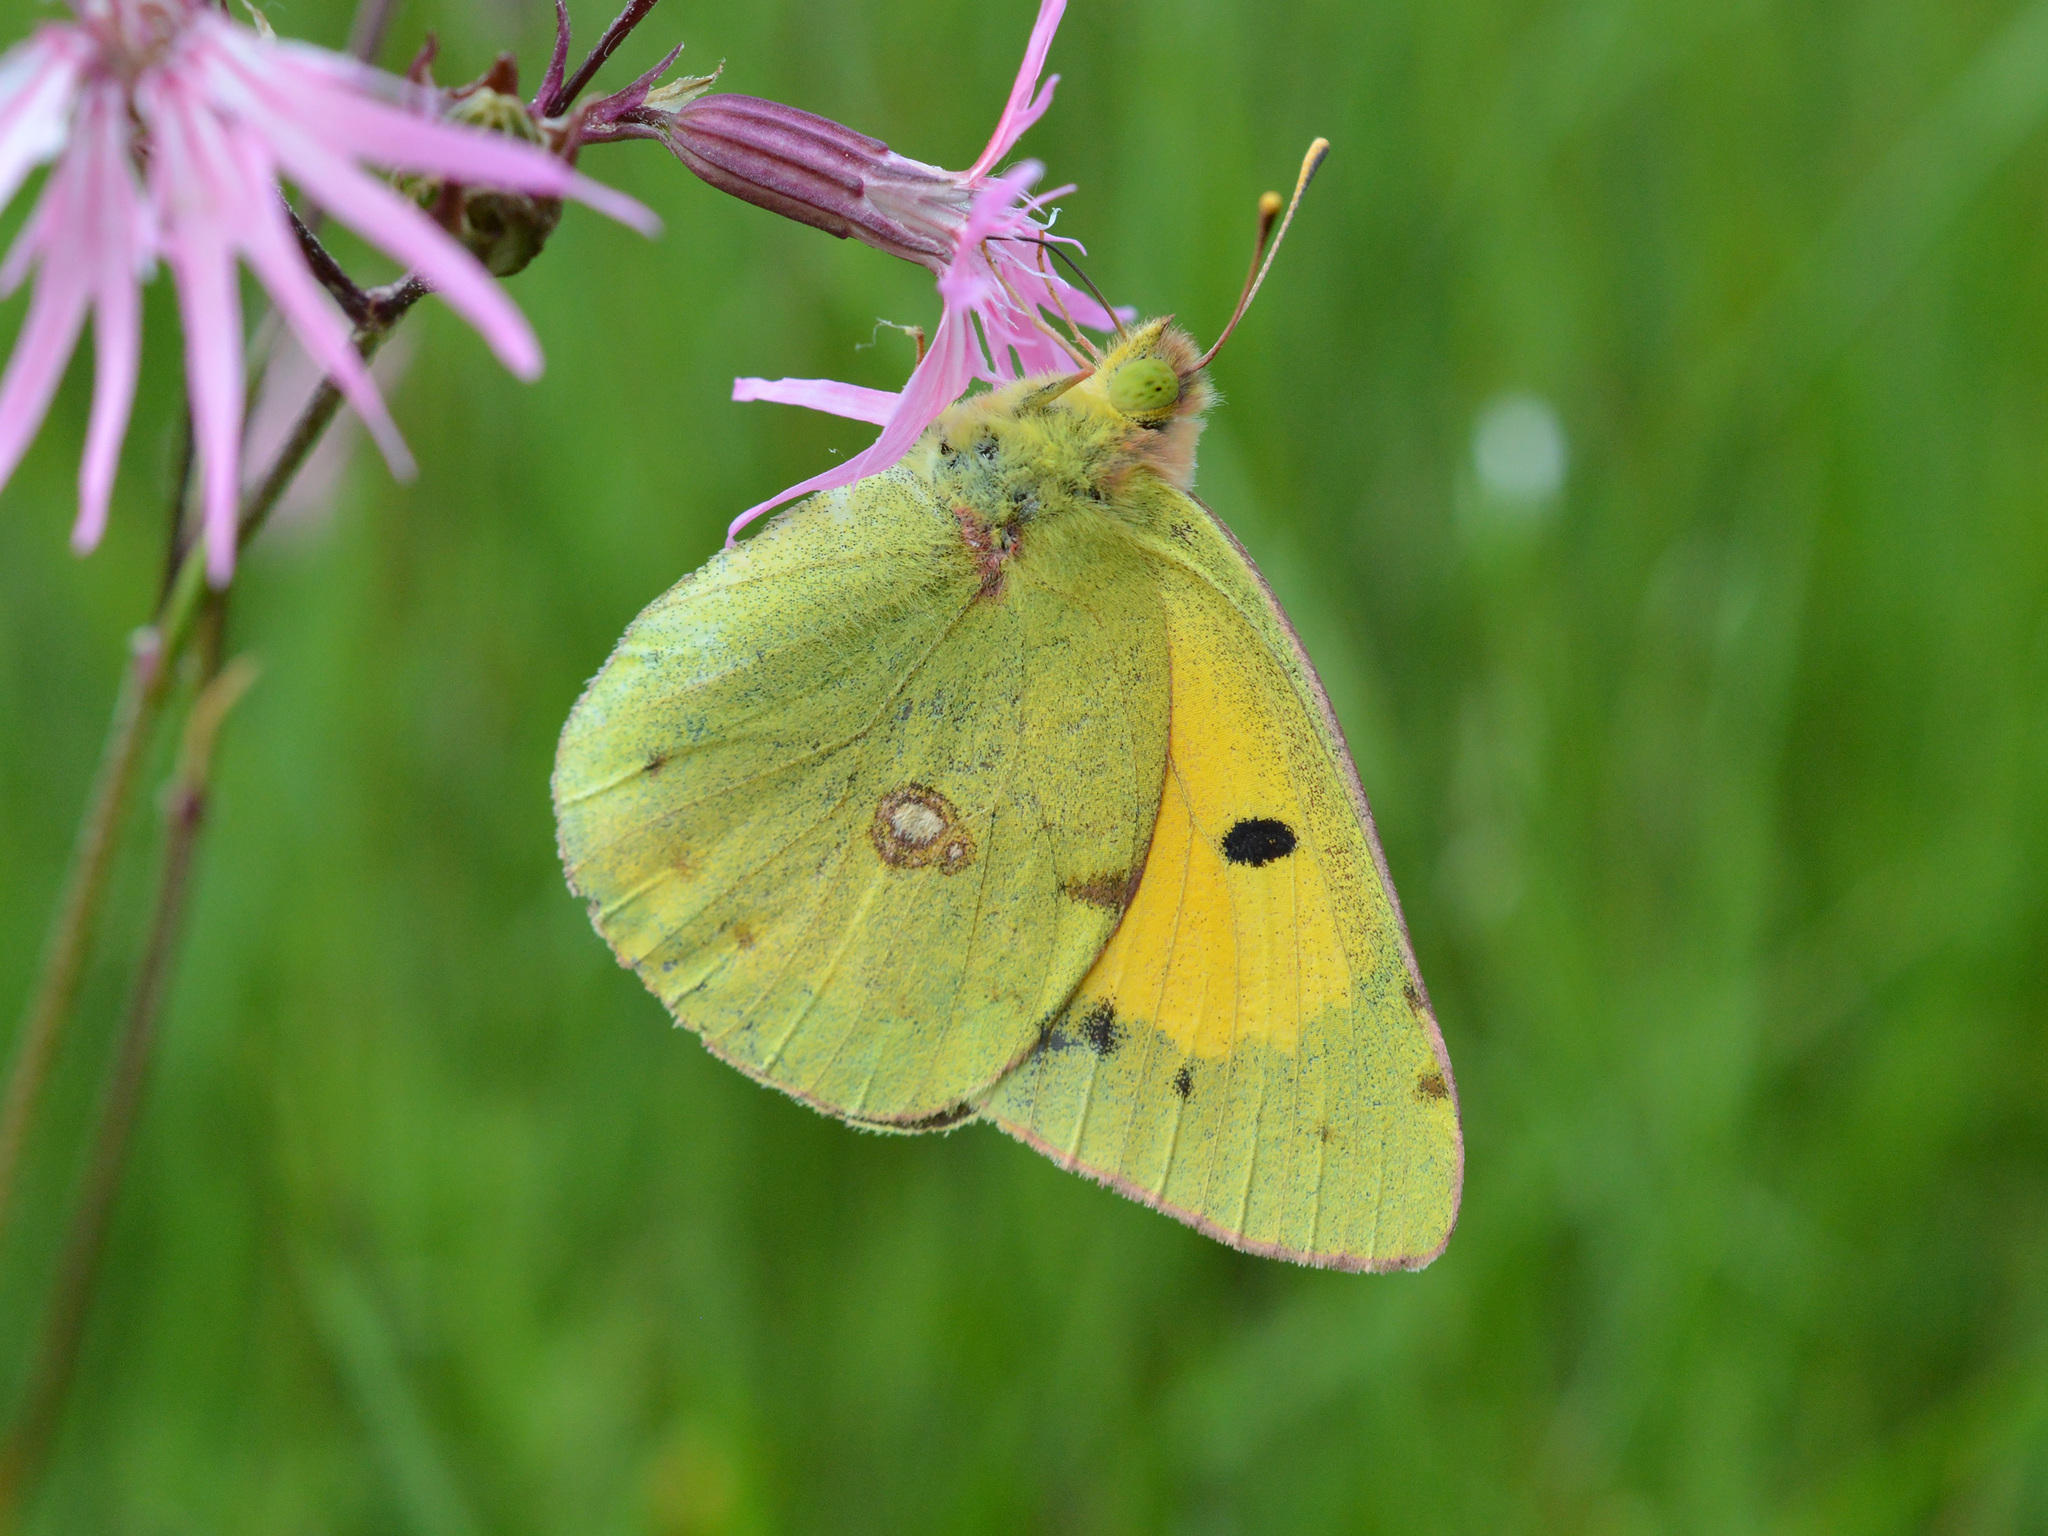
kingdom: Animalia
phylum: Arthropoda
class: Insecta
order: Lepidoptera
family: Pieridae
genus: Colias
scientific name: Colias croceus
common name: Clouded yellow
